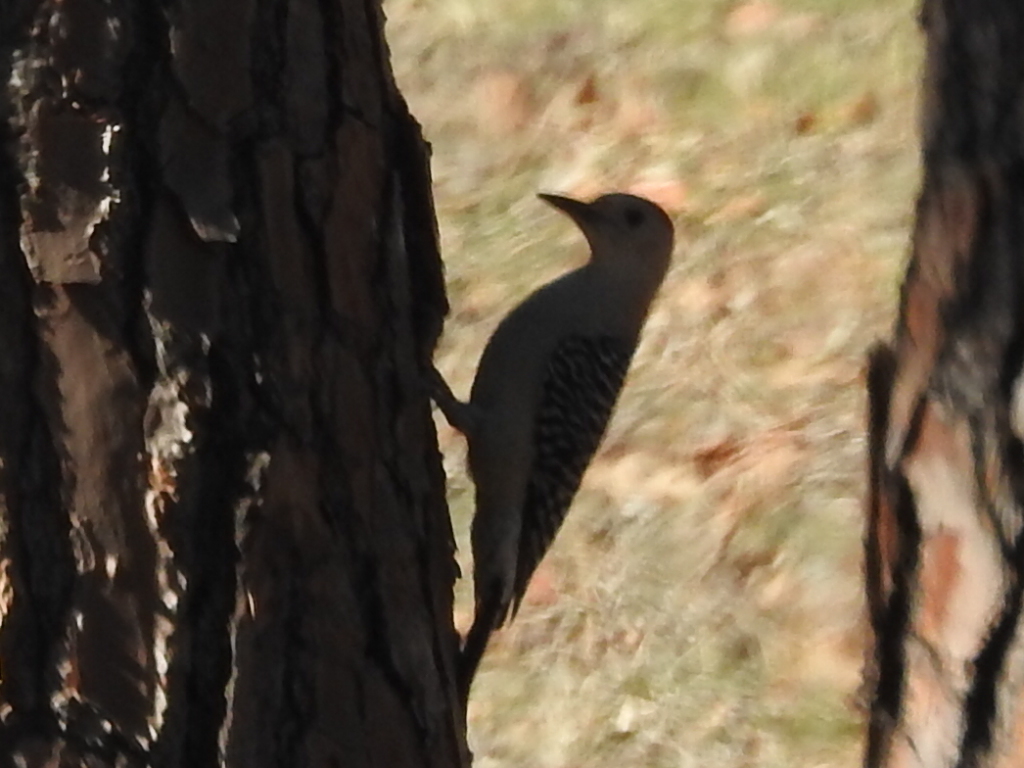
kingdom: Animalia
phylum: Chordata
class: Aves
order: Piciformes
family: Picidae
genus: Melanerpes
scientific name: Melanerpes carolinus
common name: Red-bellied woodpecker
